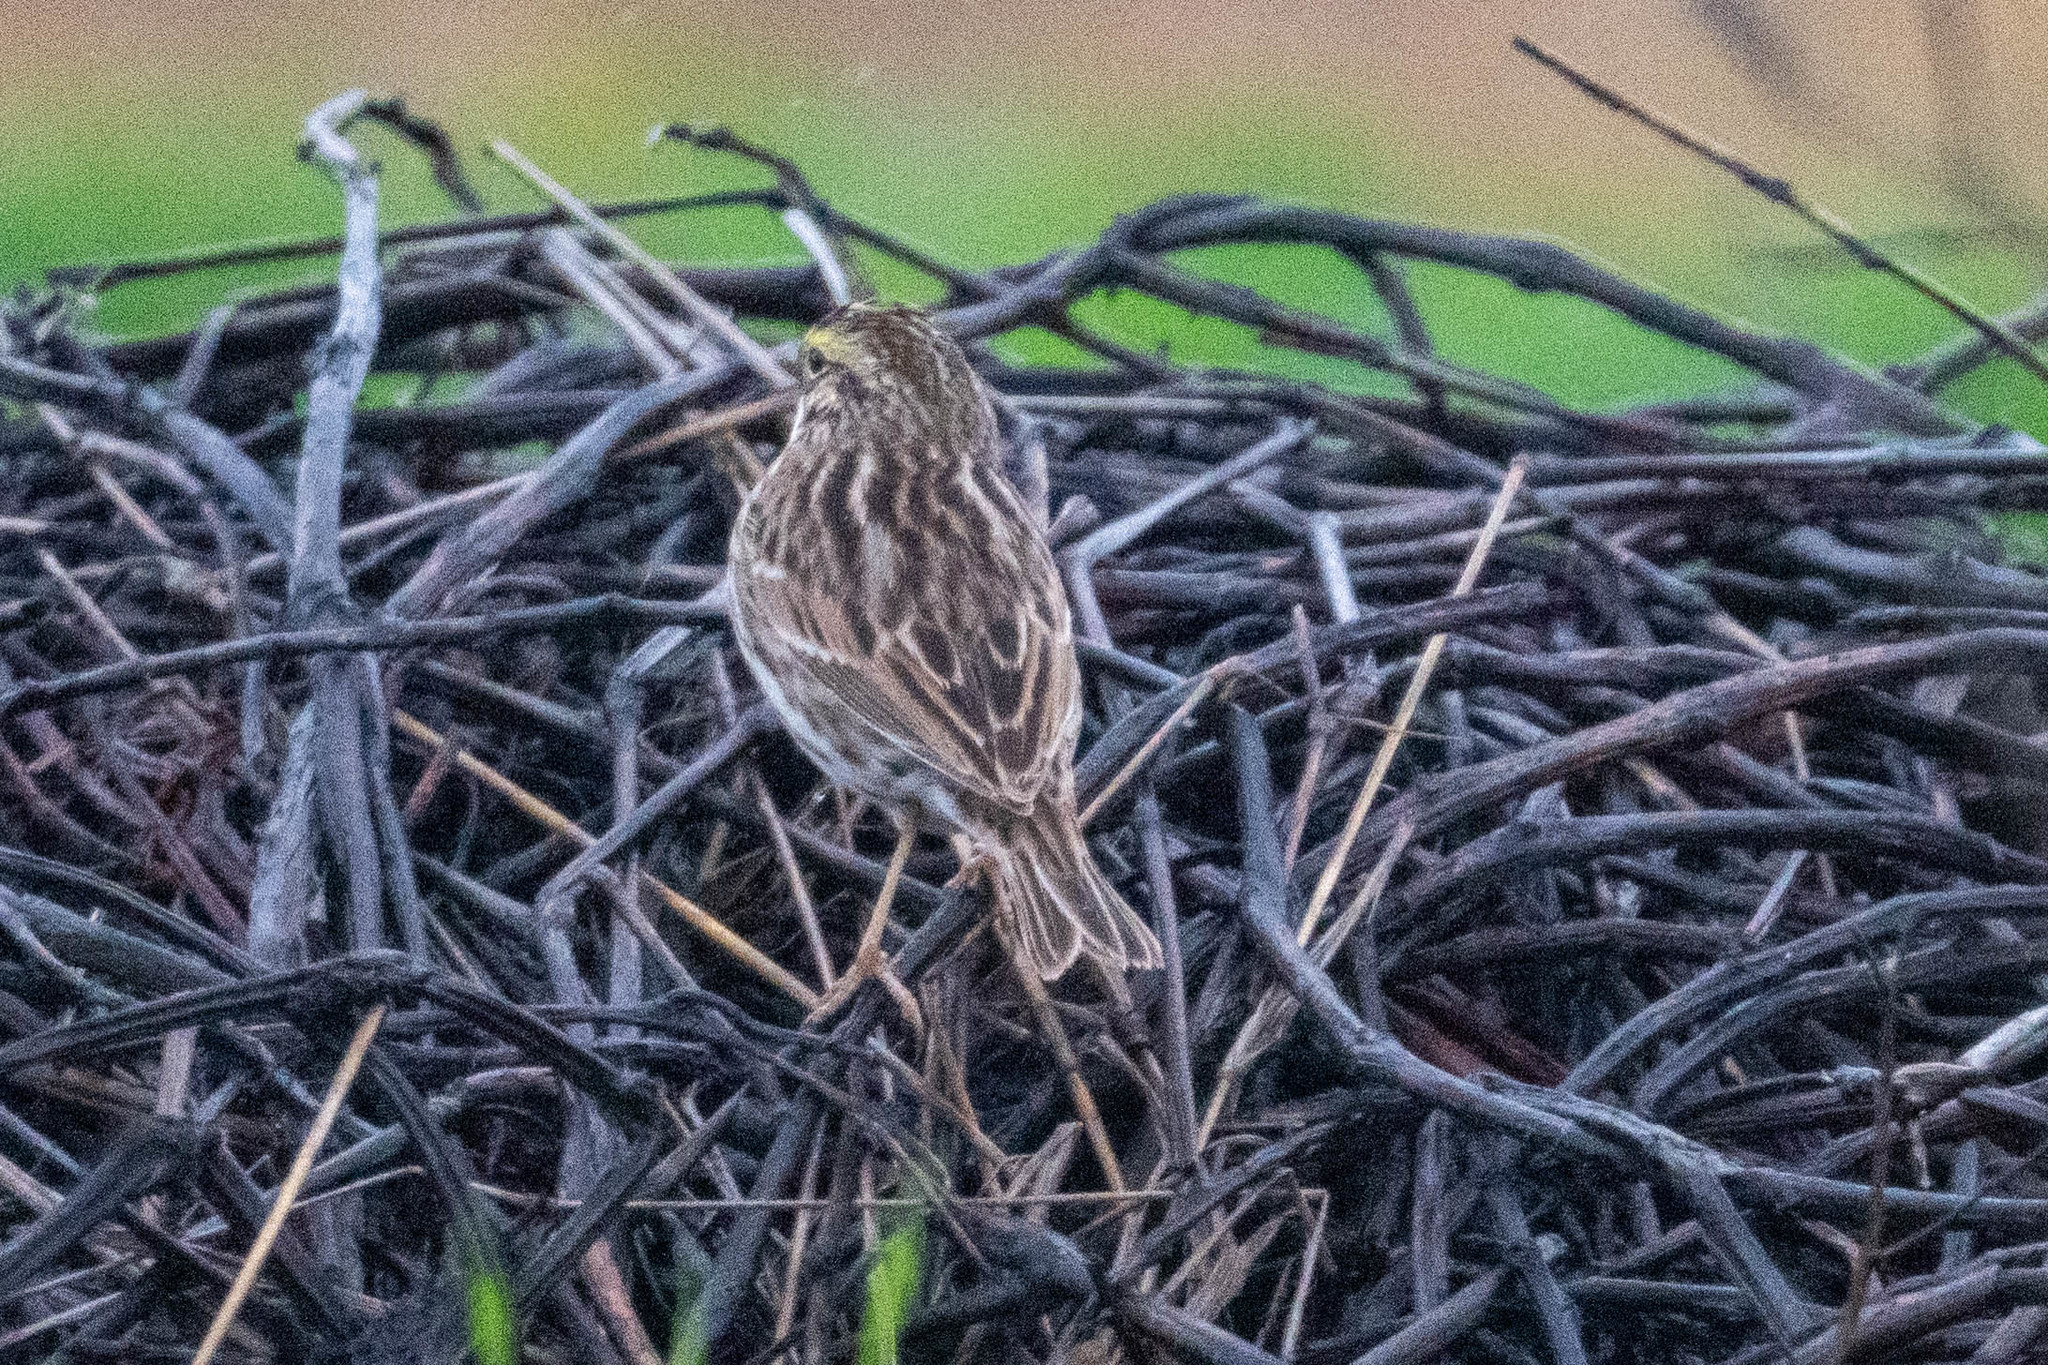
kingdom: Animalia
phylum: Chordata
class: Aves
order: Passeriformes
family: Passerellidae
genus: Passerculus
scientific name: Passerculus sandwichensis
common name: Savannah sparrow
